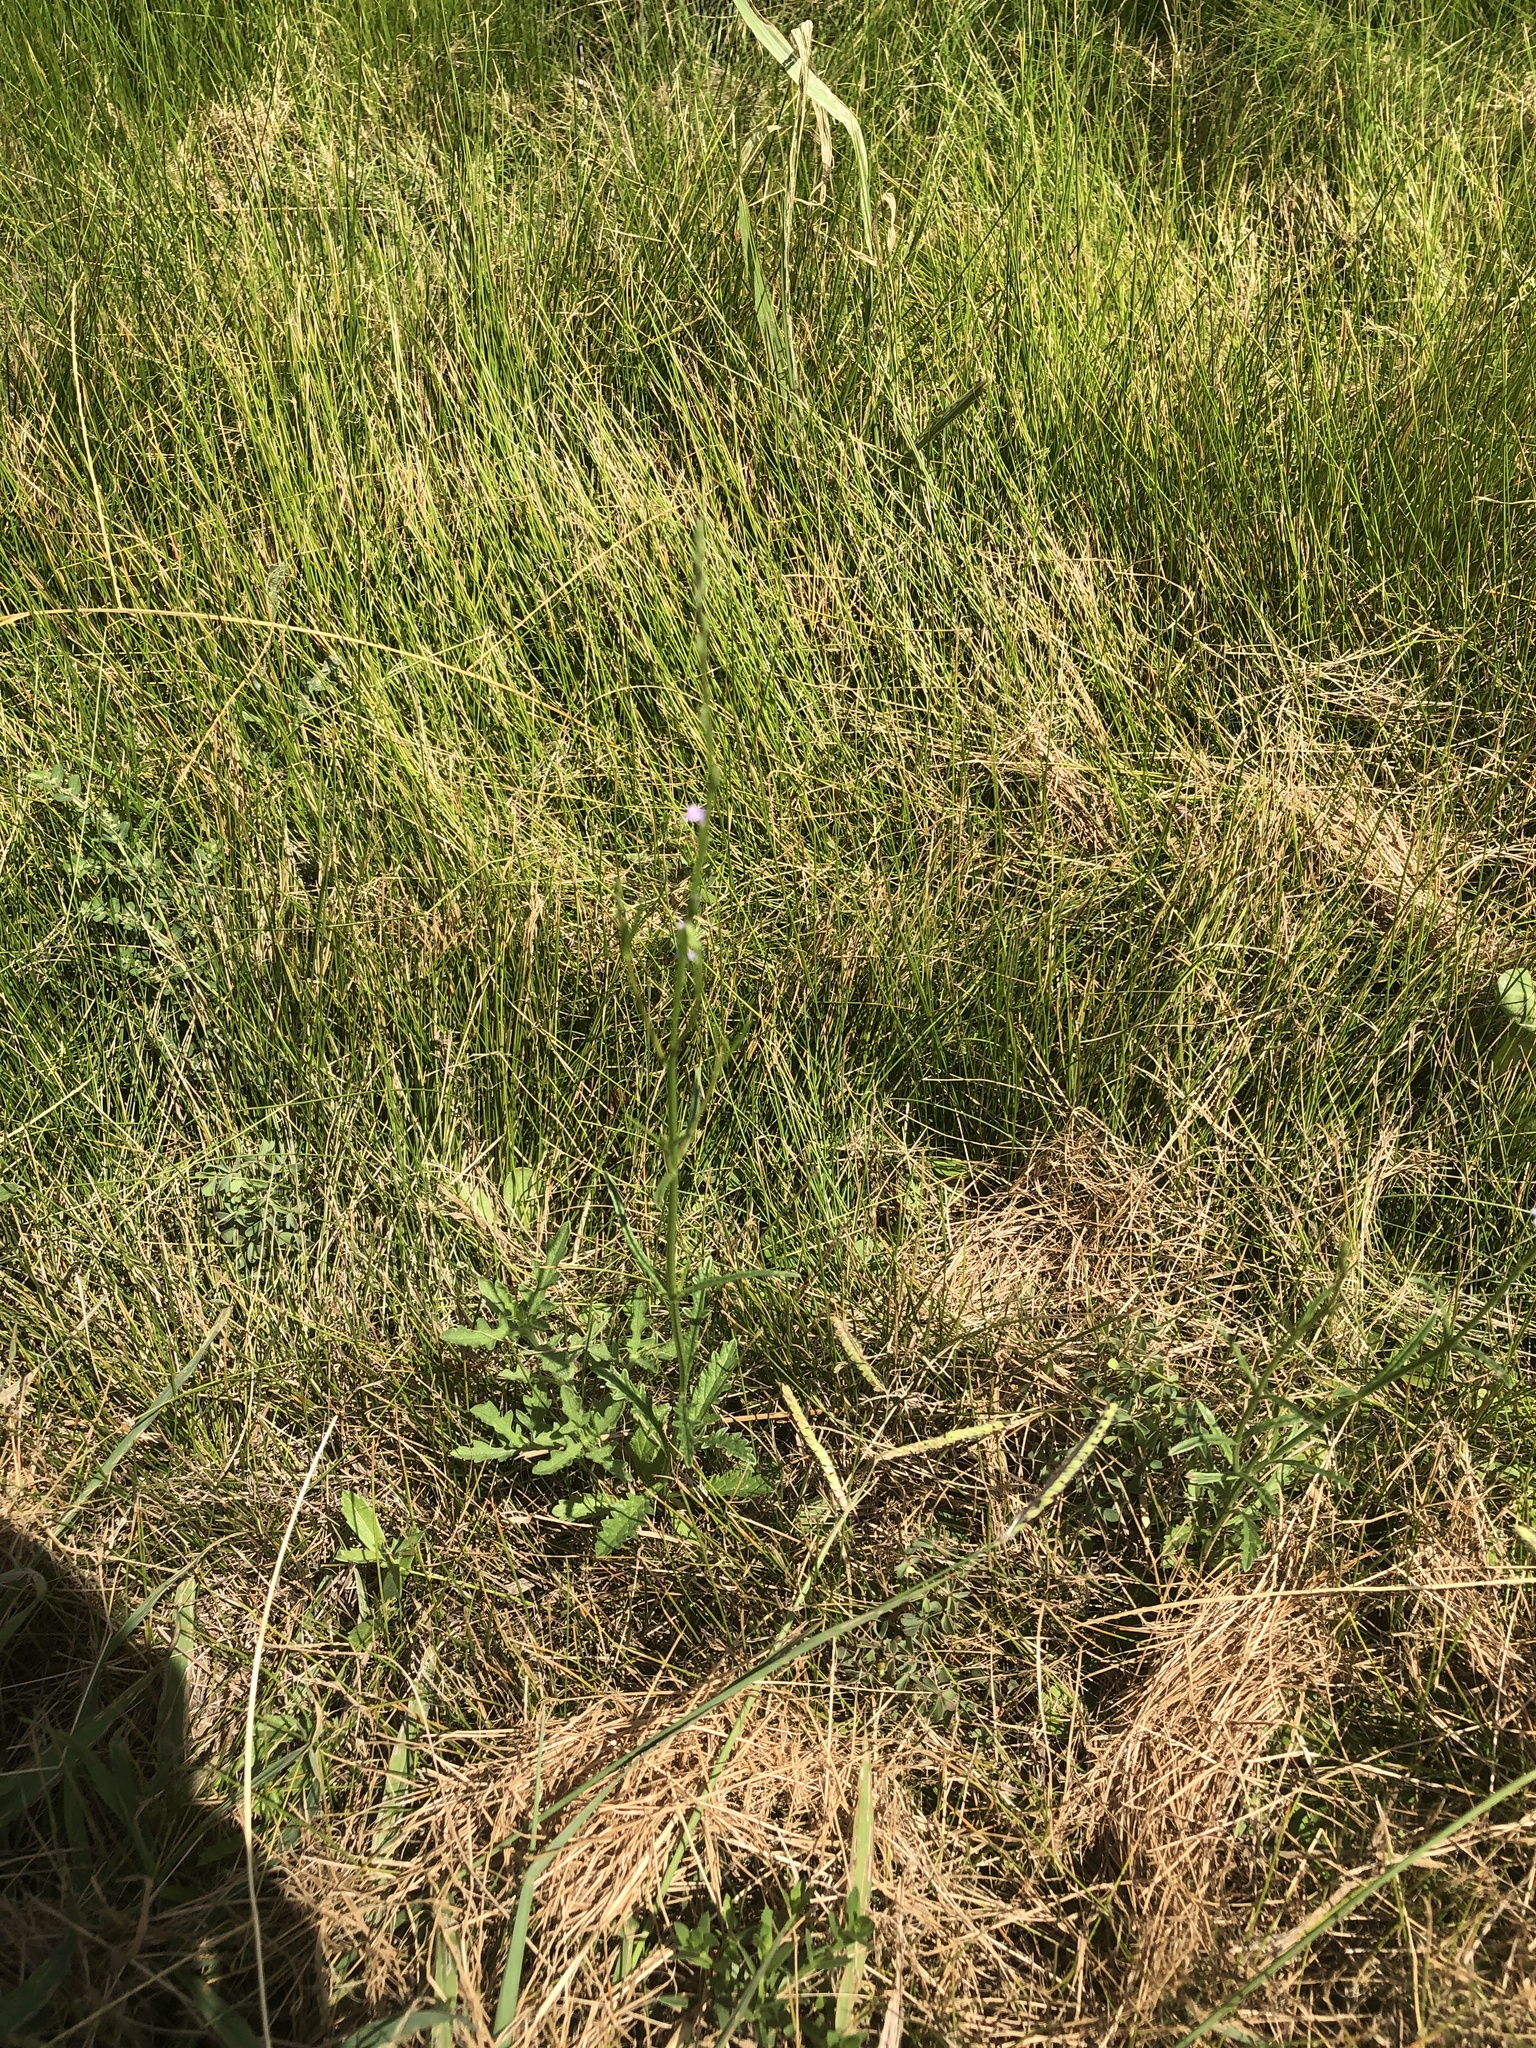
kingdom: Plantae
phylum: Tracheophyta
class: Magnoliopsida
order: Lamiales
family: Verbenaceae
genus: Verbena
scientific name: Verbena halei
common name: Texas vervain
